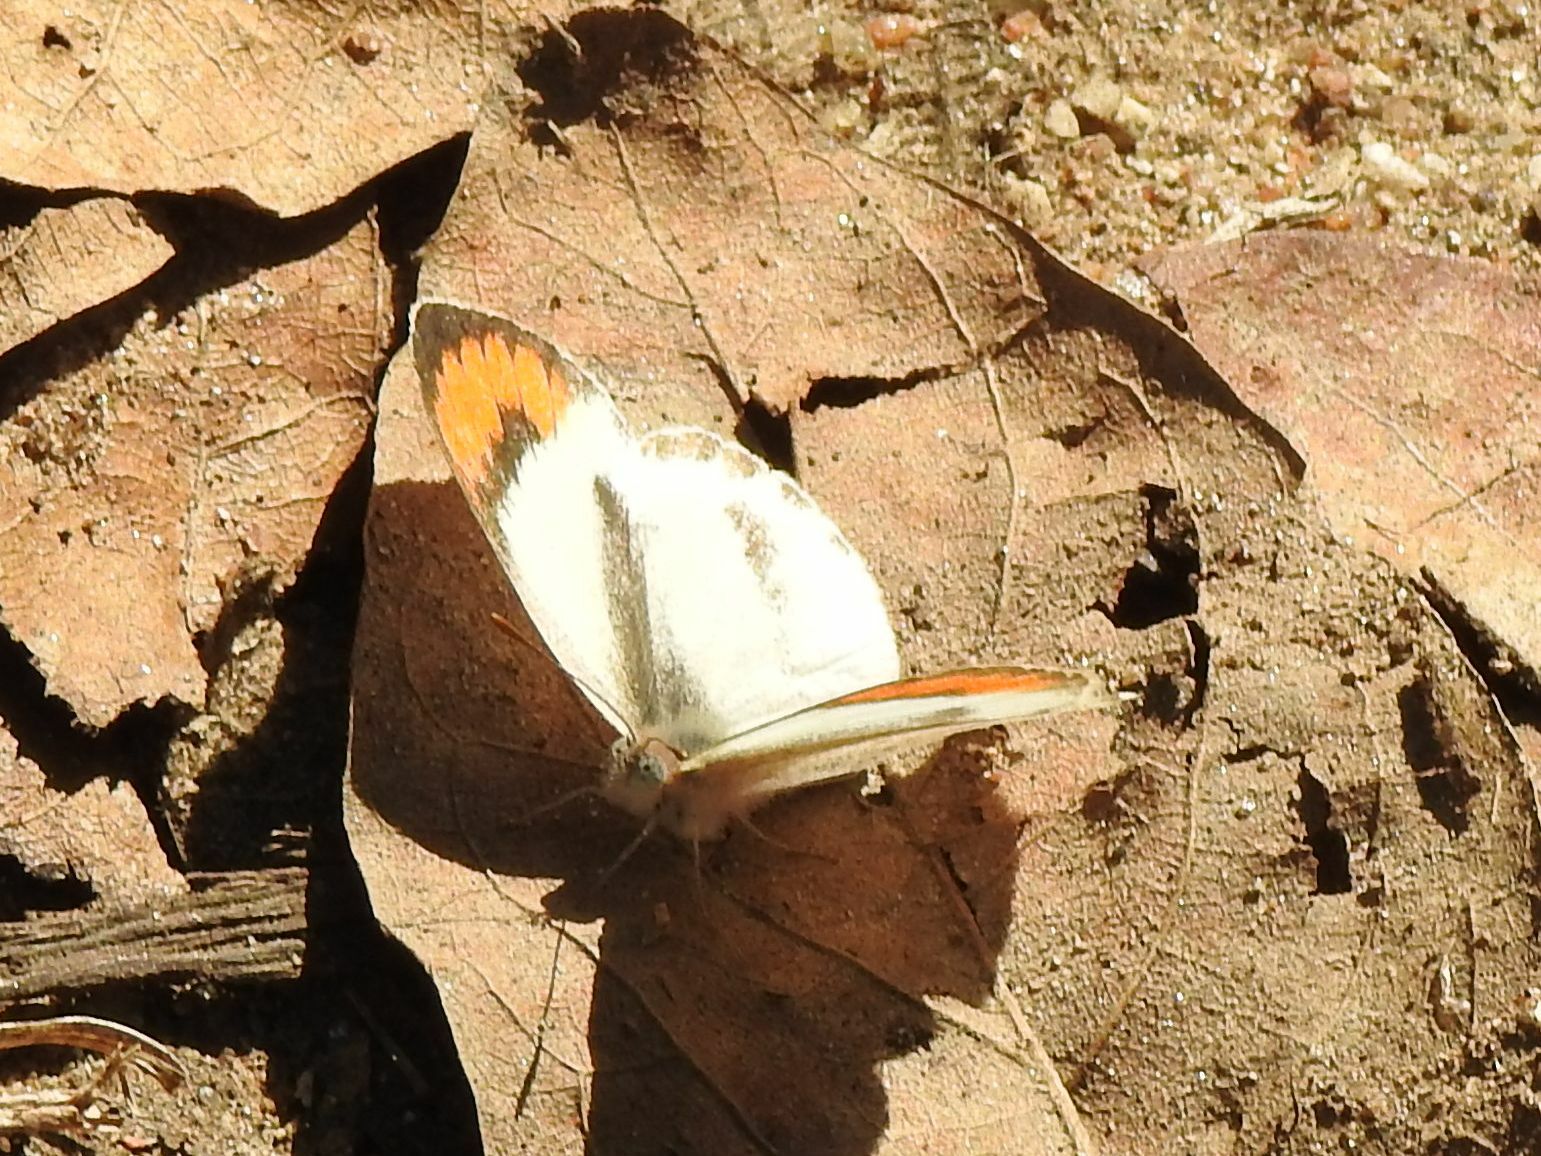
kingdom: Animalia
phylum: Arthropoda
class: Insecta
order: Lepidoptera
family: Pieridae
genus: Colotis
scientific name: Colotis euippe
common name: Round-winged orange tip
